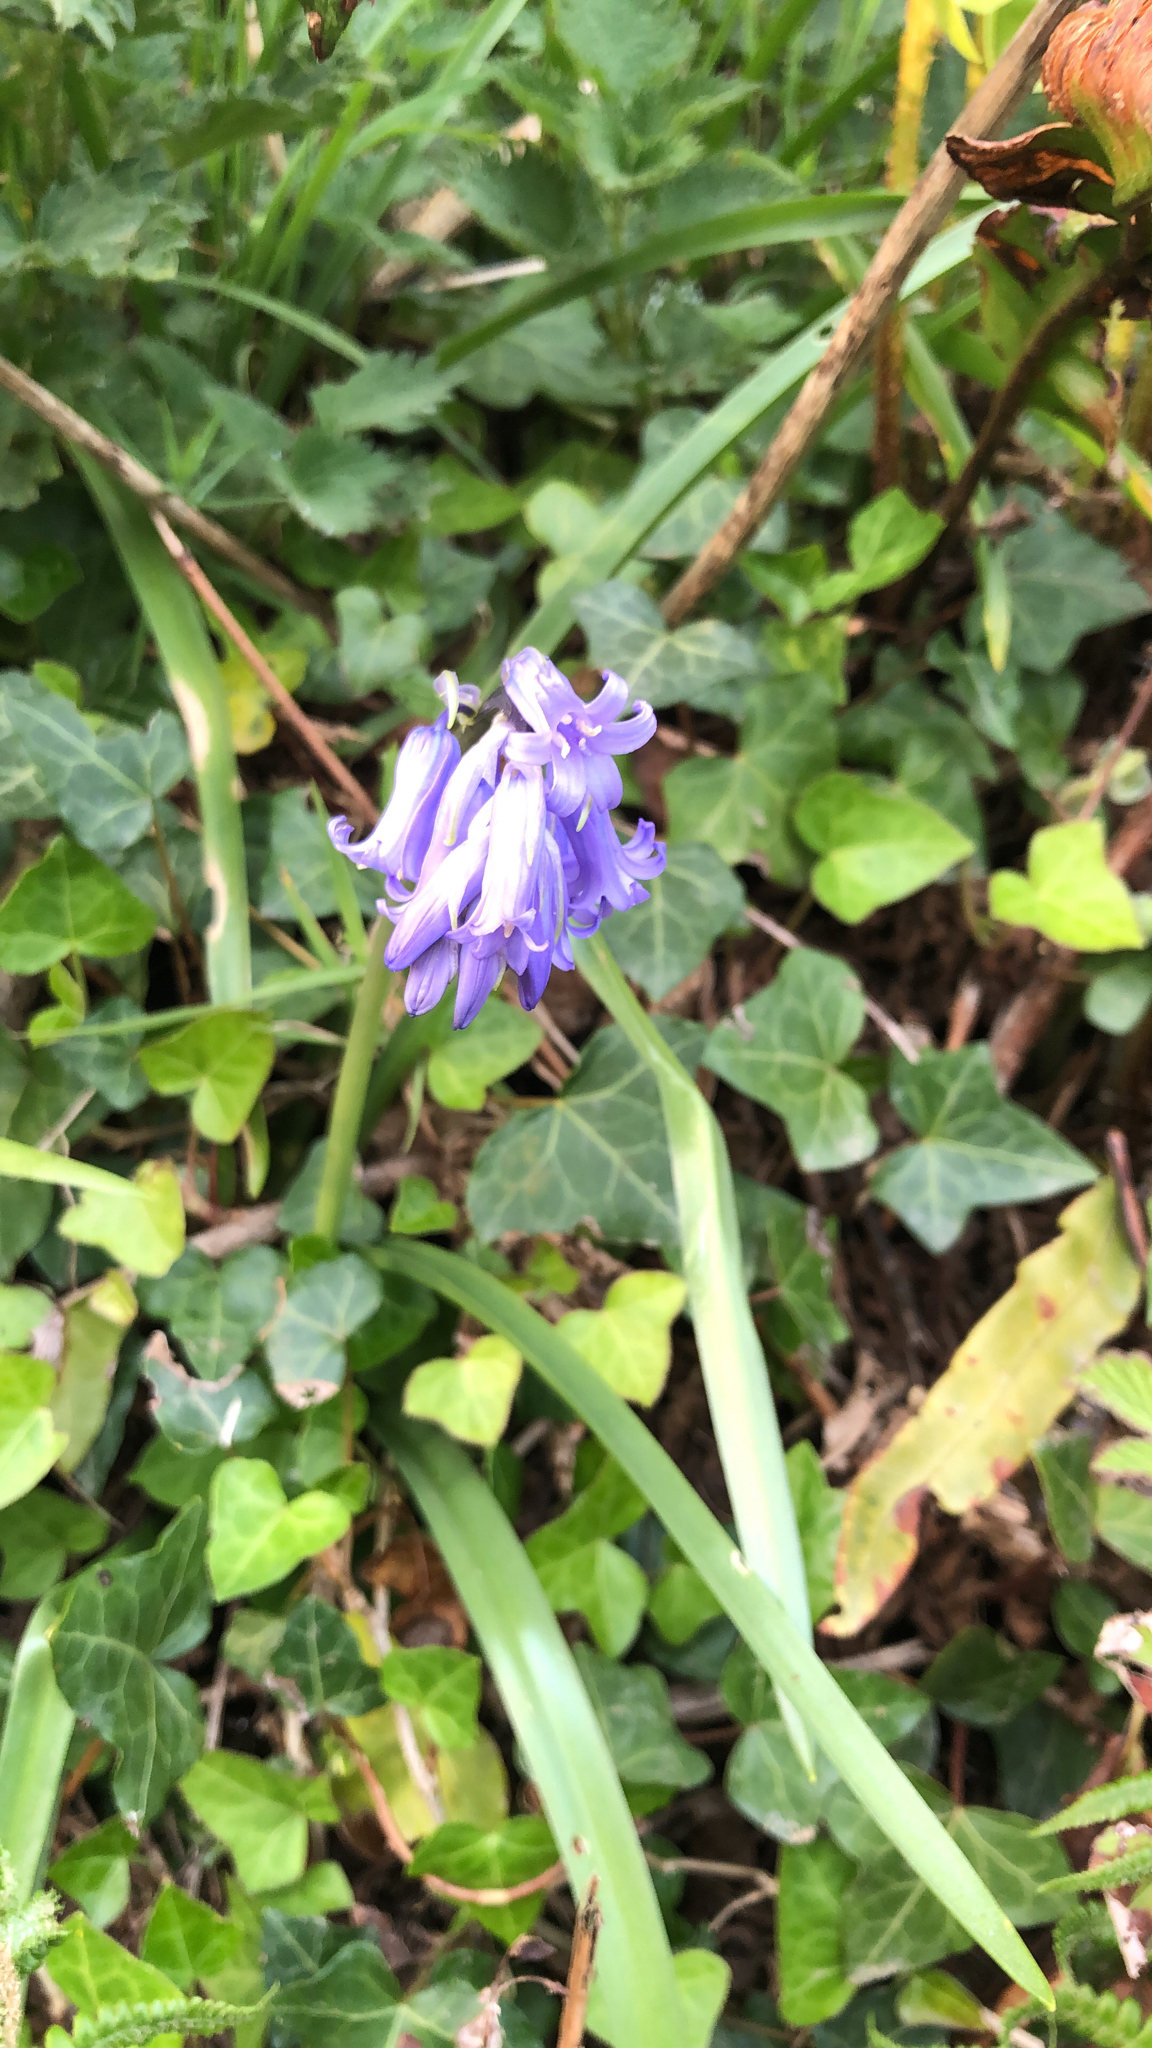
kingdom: Plantae
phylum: Tracheophyta
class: Liliopsida
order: Asparagales
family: Asparagaceae
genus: Hyacinthoides
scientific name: Hyacinthoides non-scripta
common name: Bluebell
